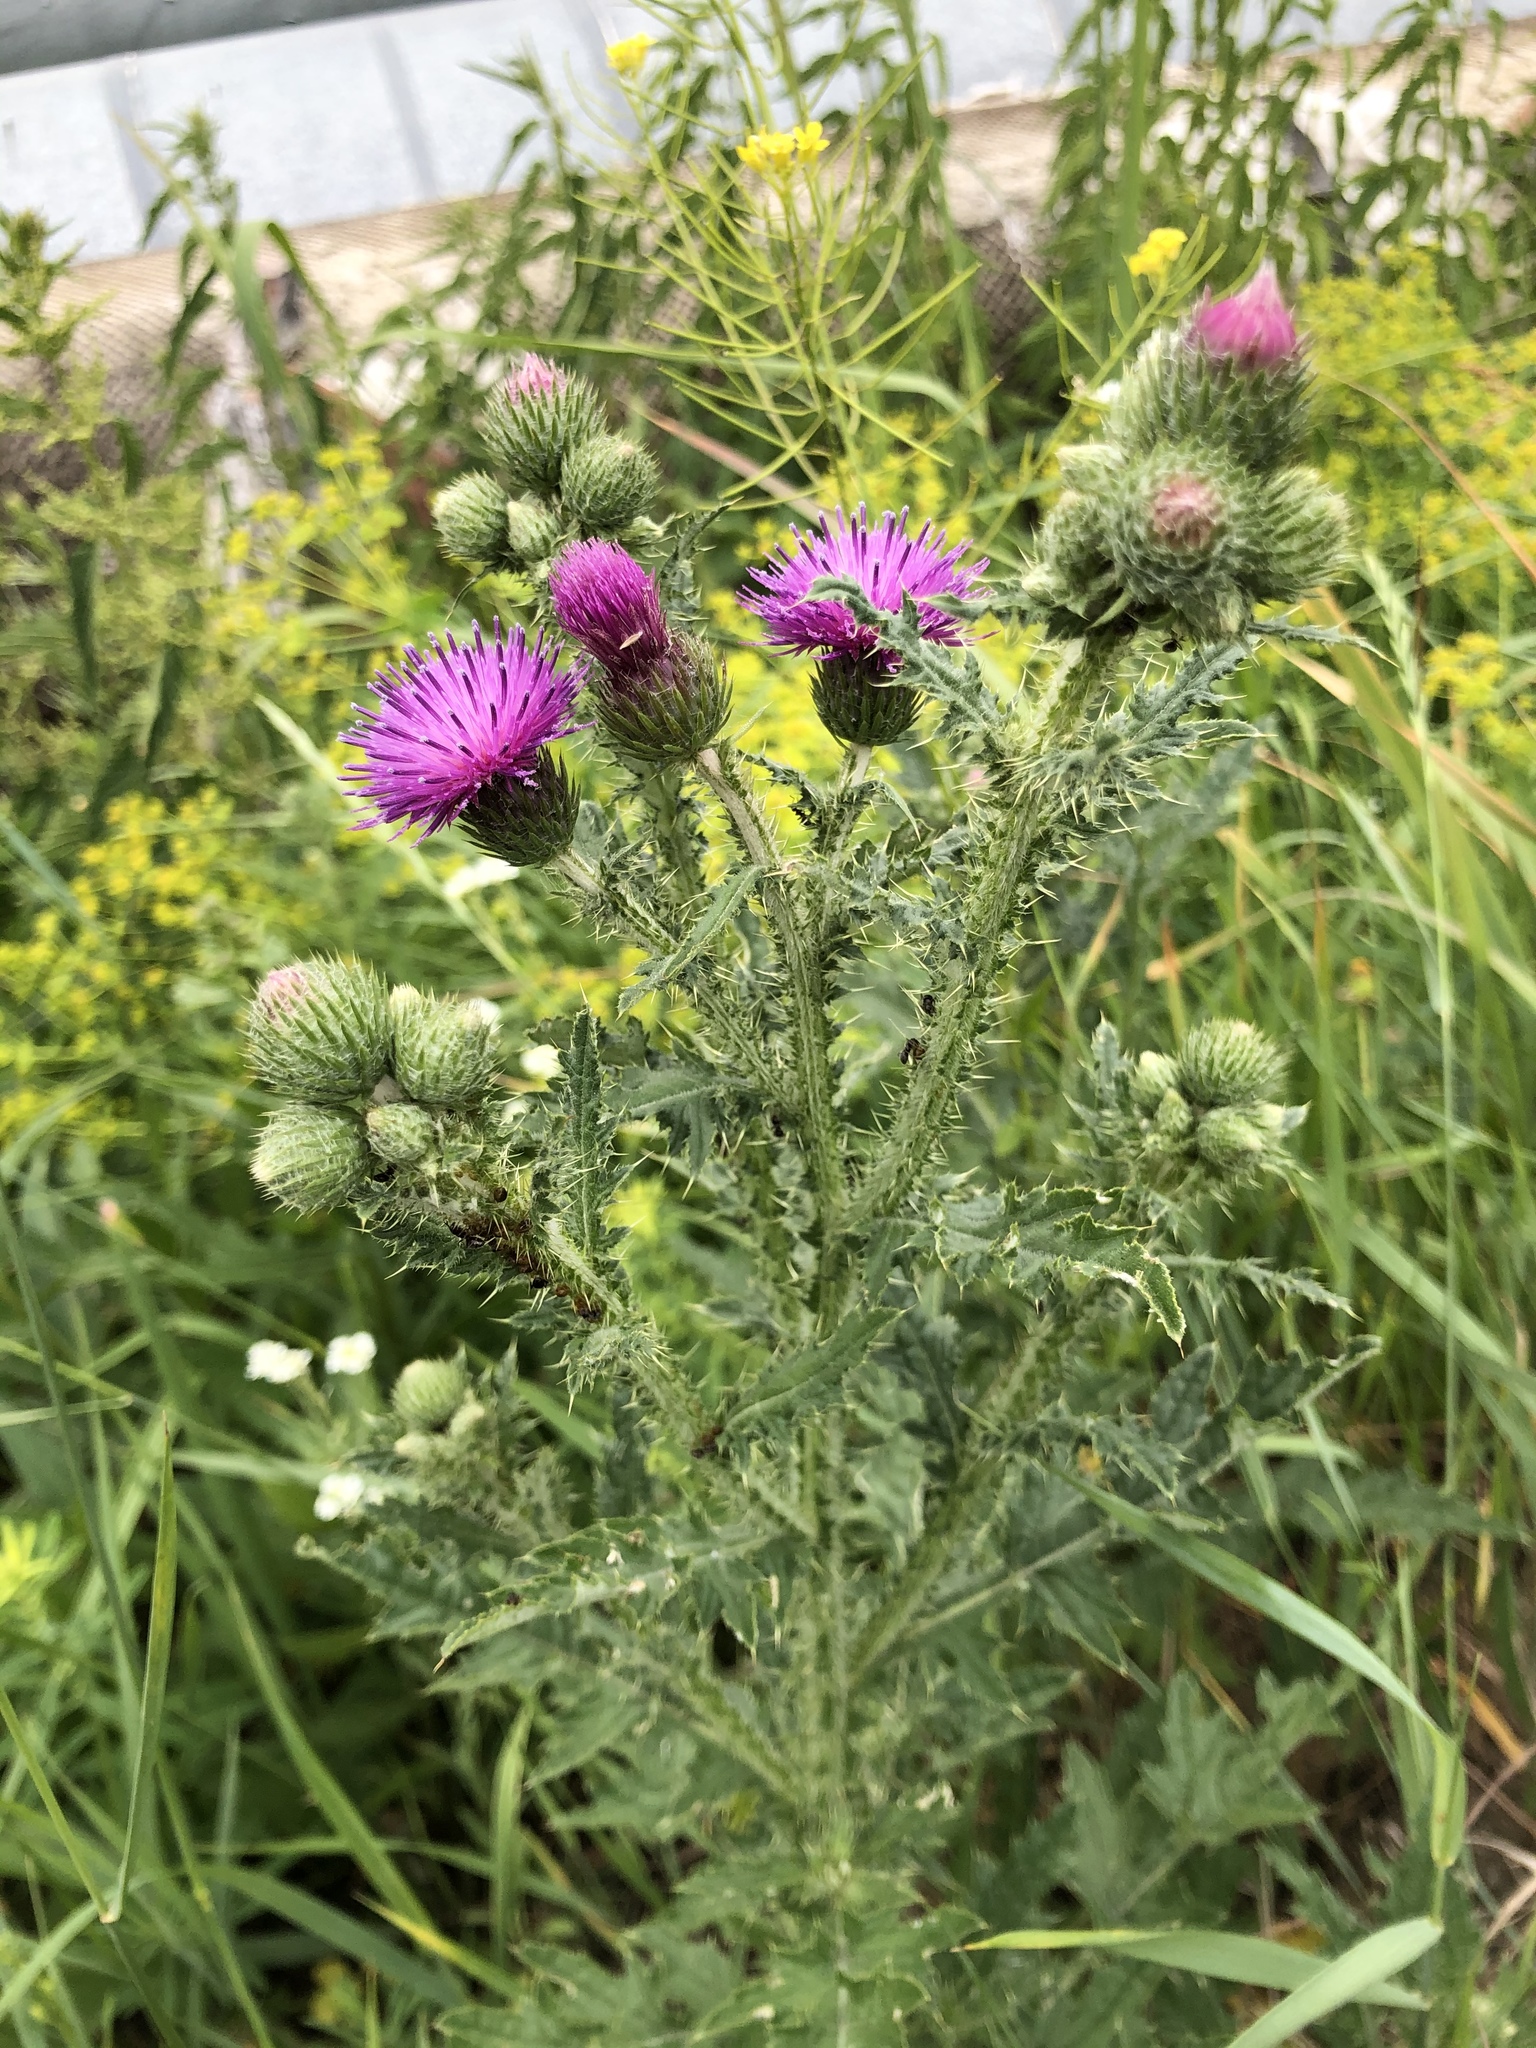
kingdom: Plantae
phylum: Tracheophyta
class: Magnoliopsida
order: Asterales
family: Asteraceae
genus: Carduus
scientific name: Carduus crispus
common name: Welted thistle
